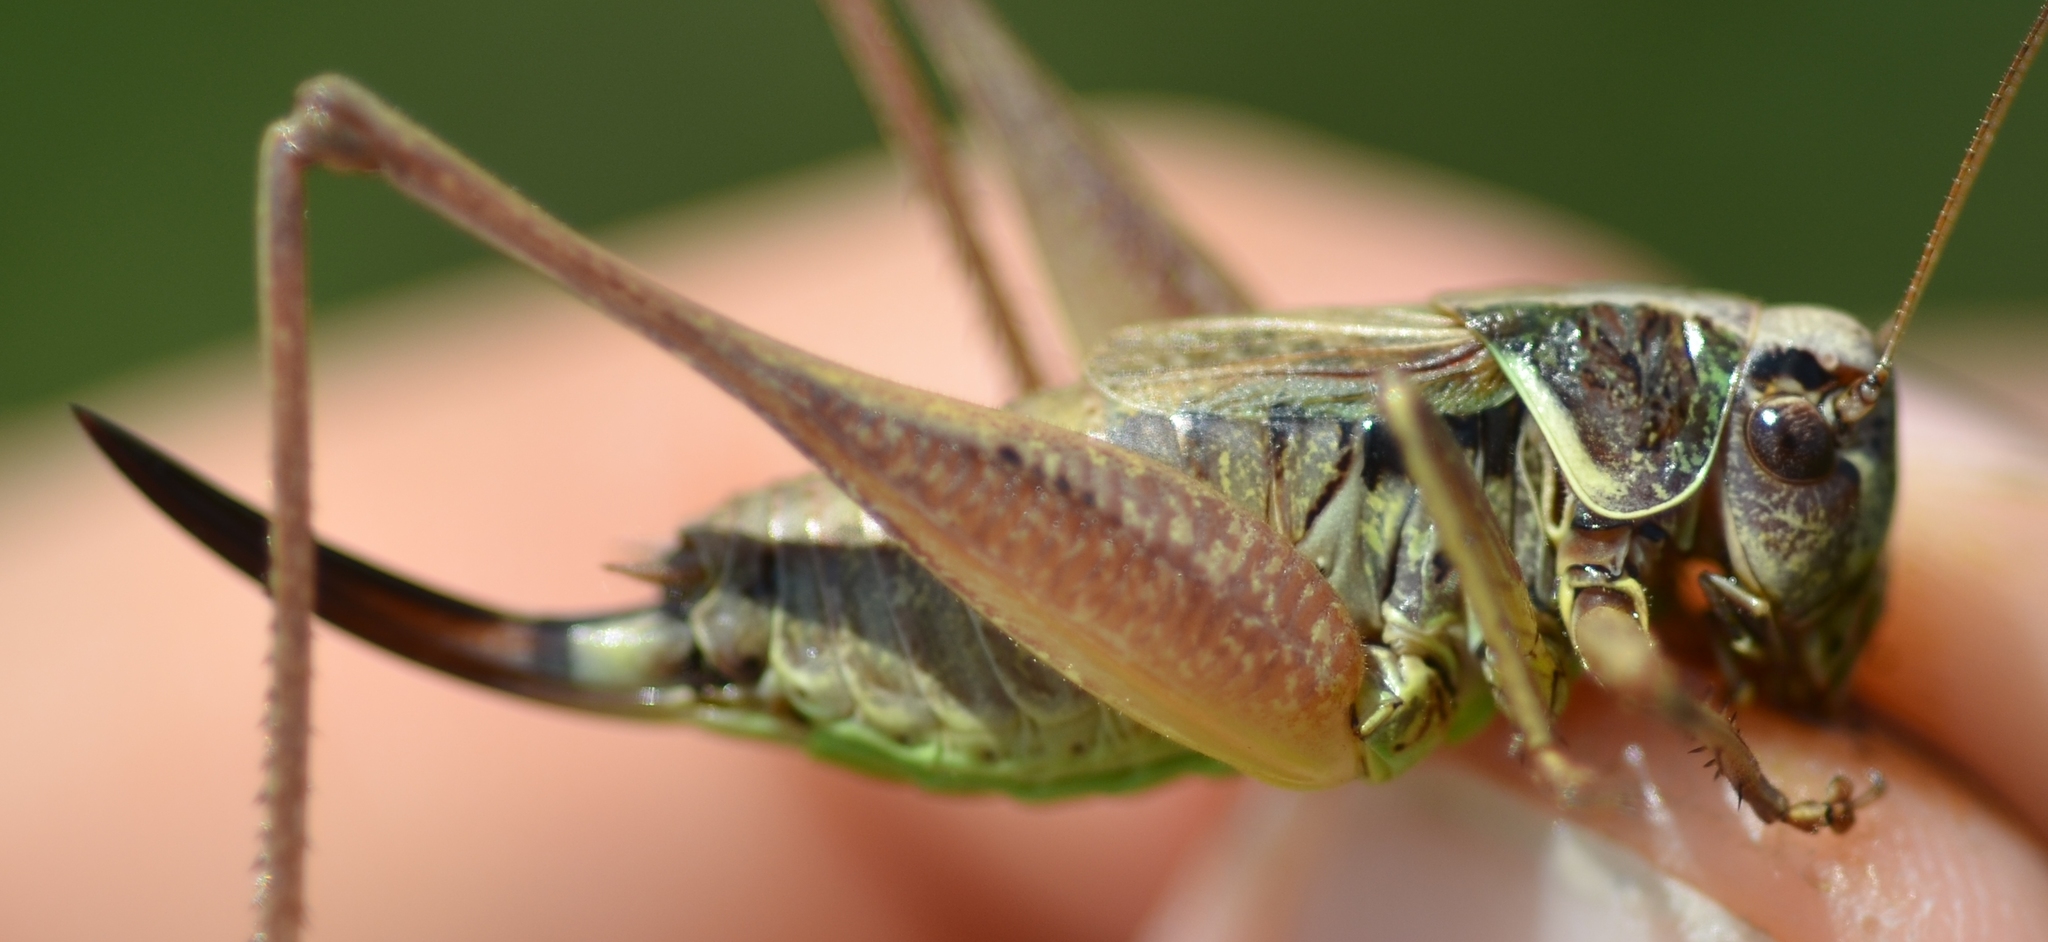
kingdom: Animalia
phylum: Arthropoda
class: Insecta
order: Orthoptera
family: Tettigoniidae
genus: Metrioptera
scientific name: Metrioptera saussuriana
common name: Purple meadow bush-cricket
